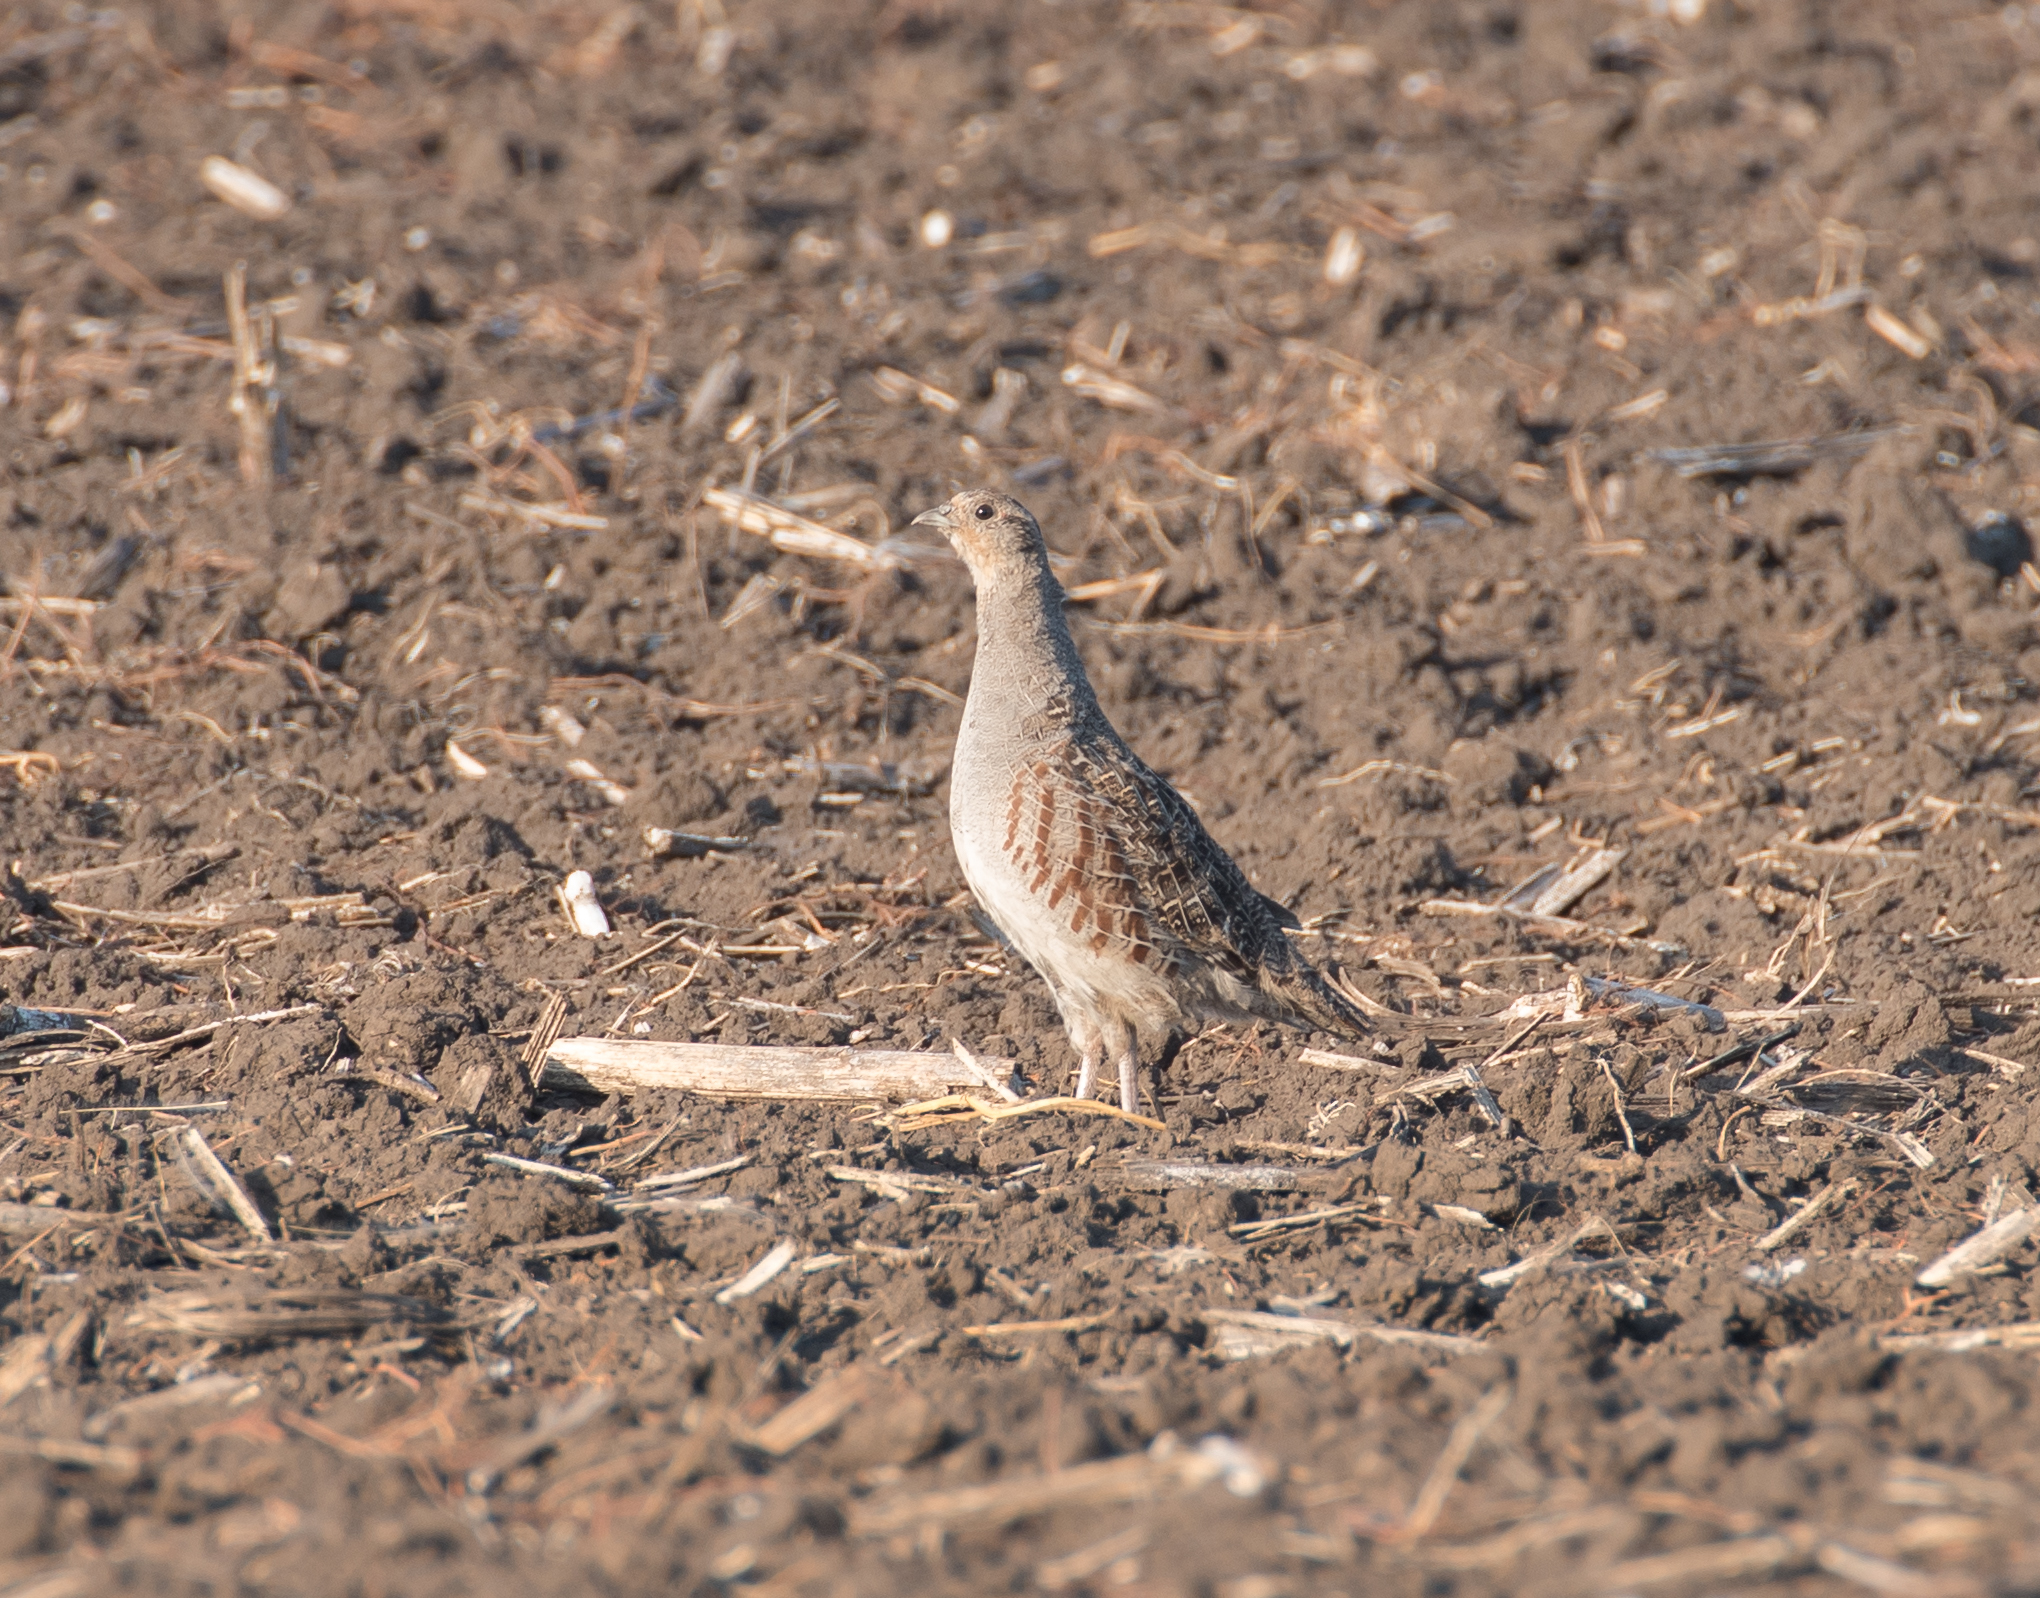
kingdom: Animalia
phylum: Chordata
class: Aves
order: Galliformes
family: Phasianidae
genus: Perdix
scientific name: Perdix perdix
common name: Grey partridge
